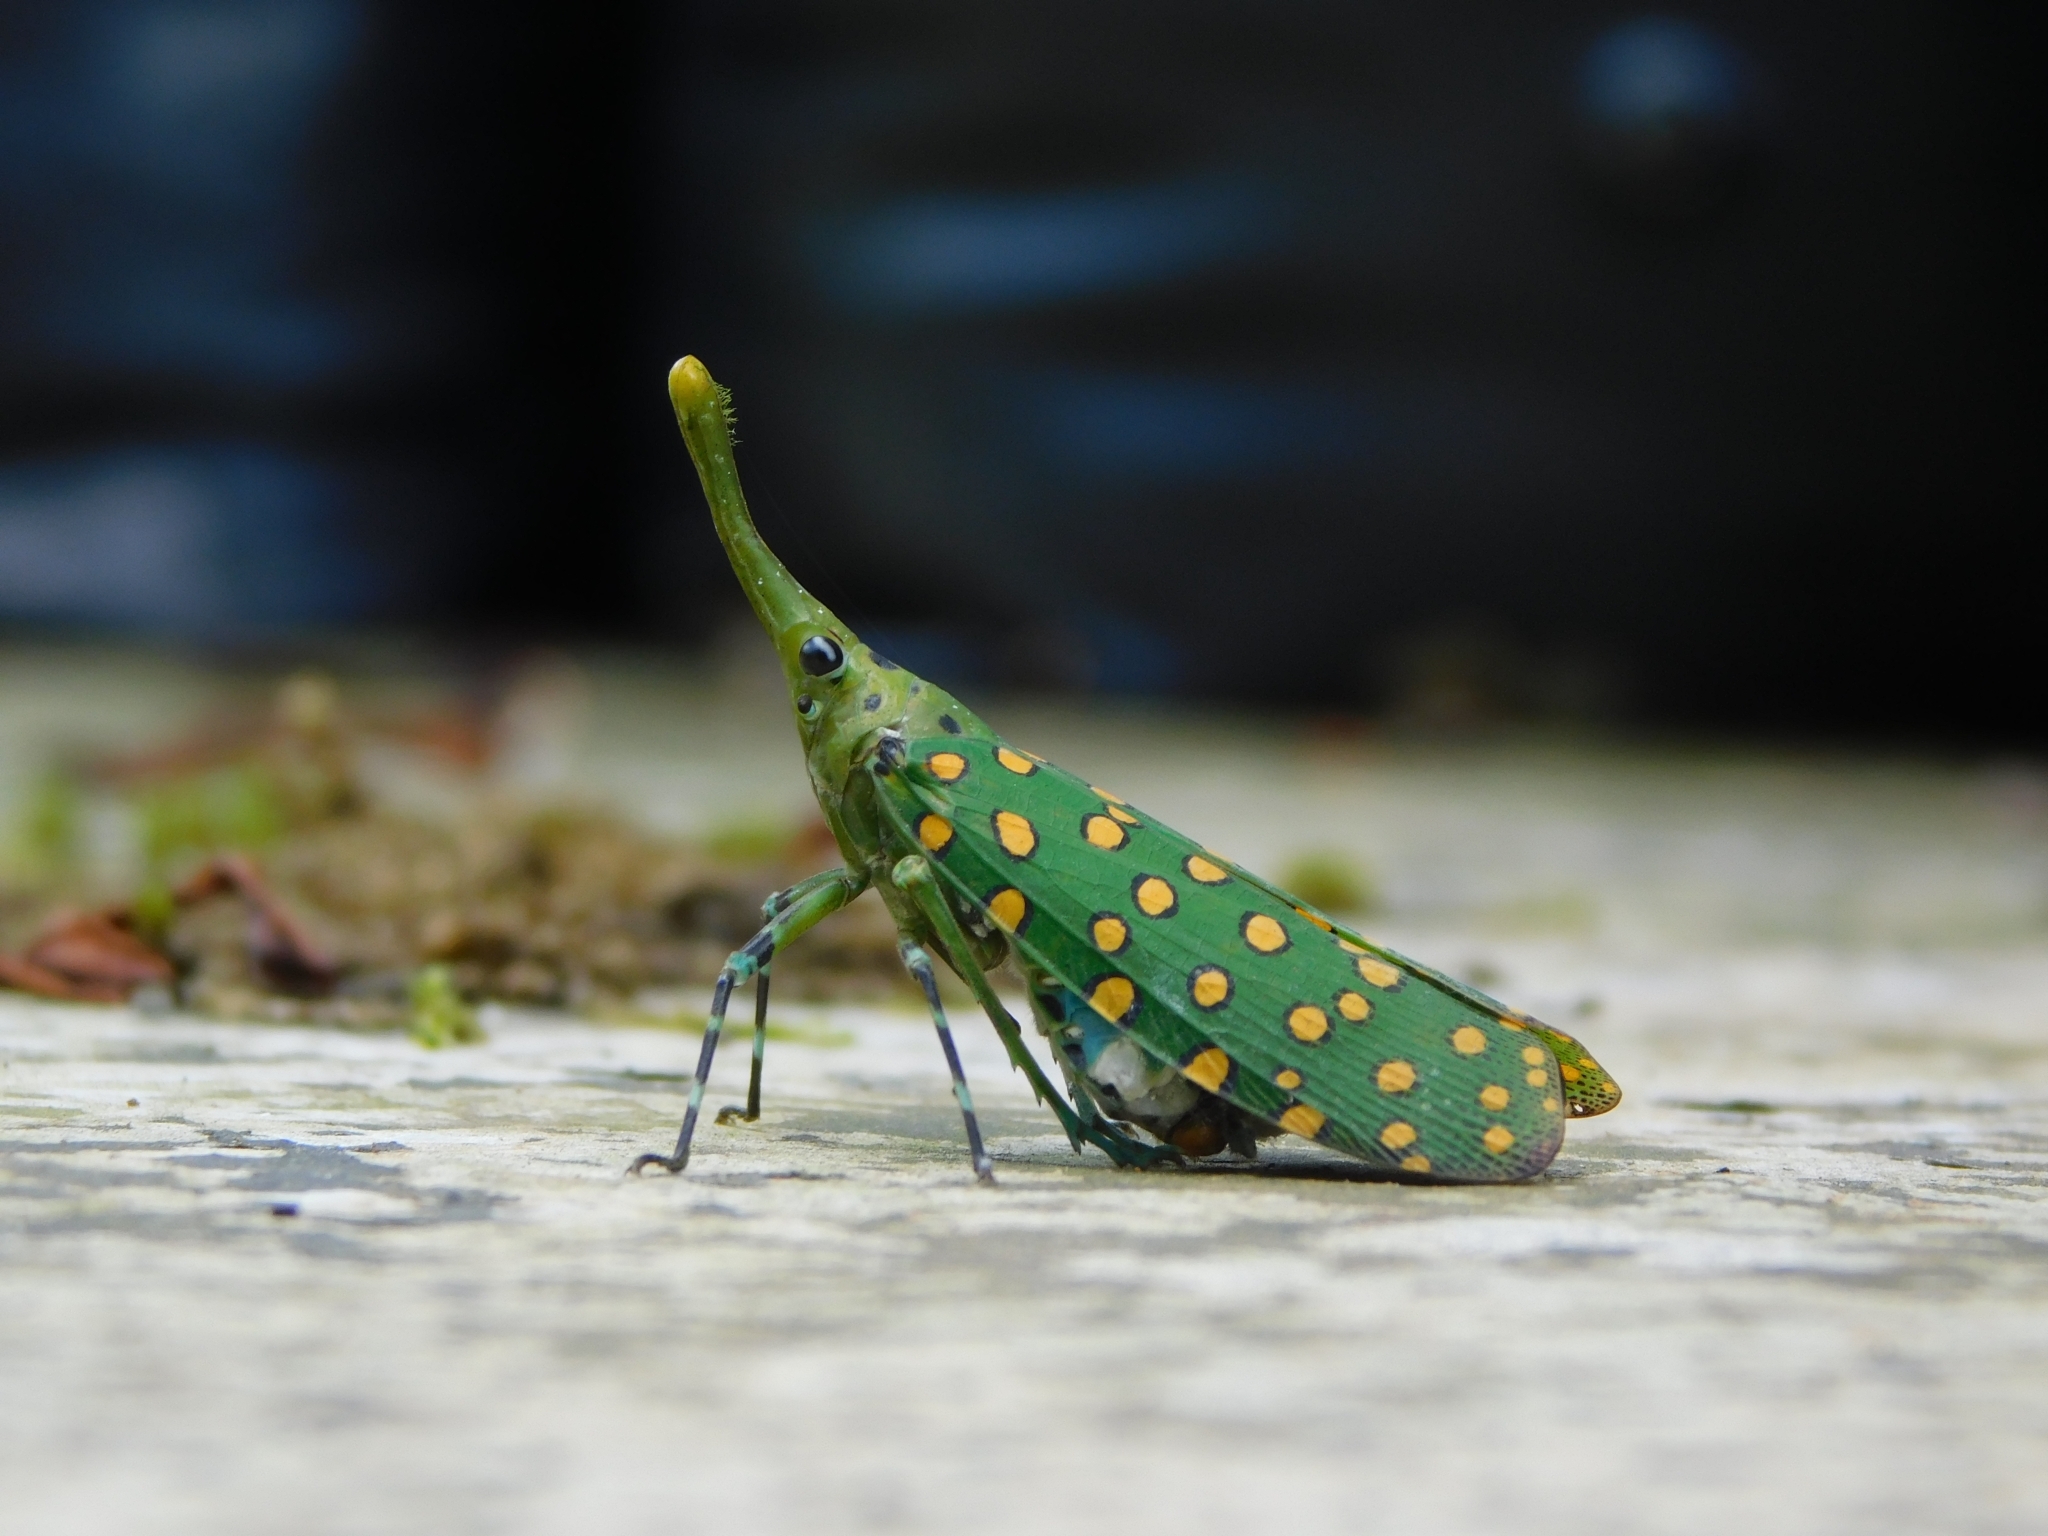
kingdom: Animalia
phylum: Arthropoda
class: Insecta
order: Hemiptera
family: Fulgoridae
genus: Saiva
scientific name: Saiva nodata
